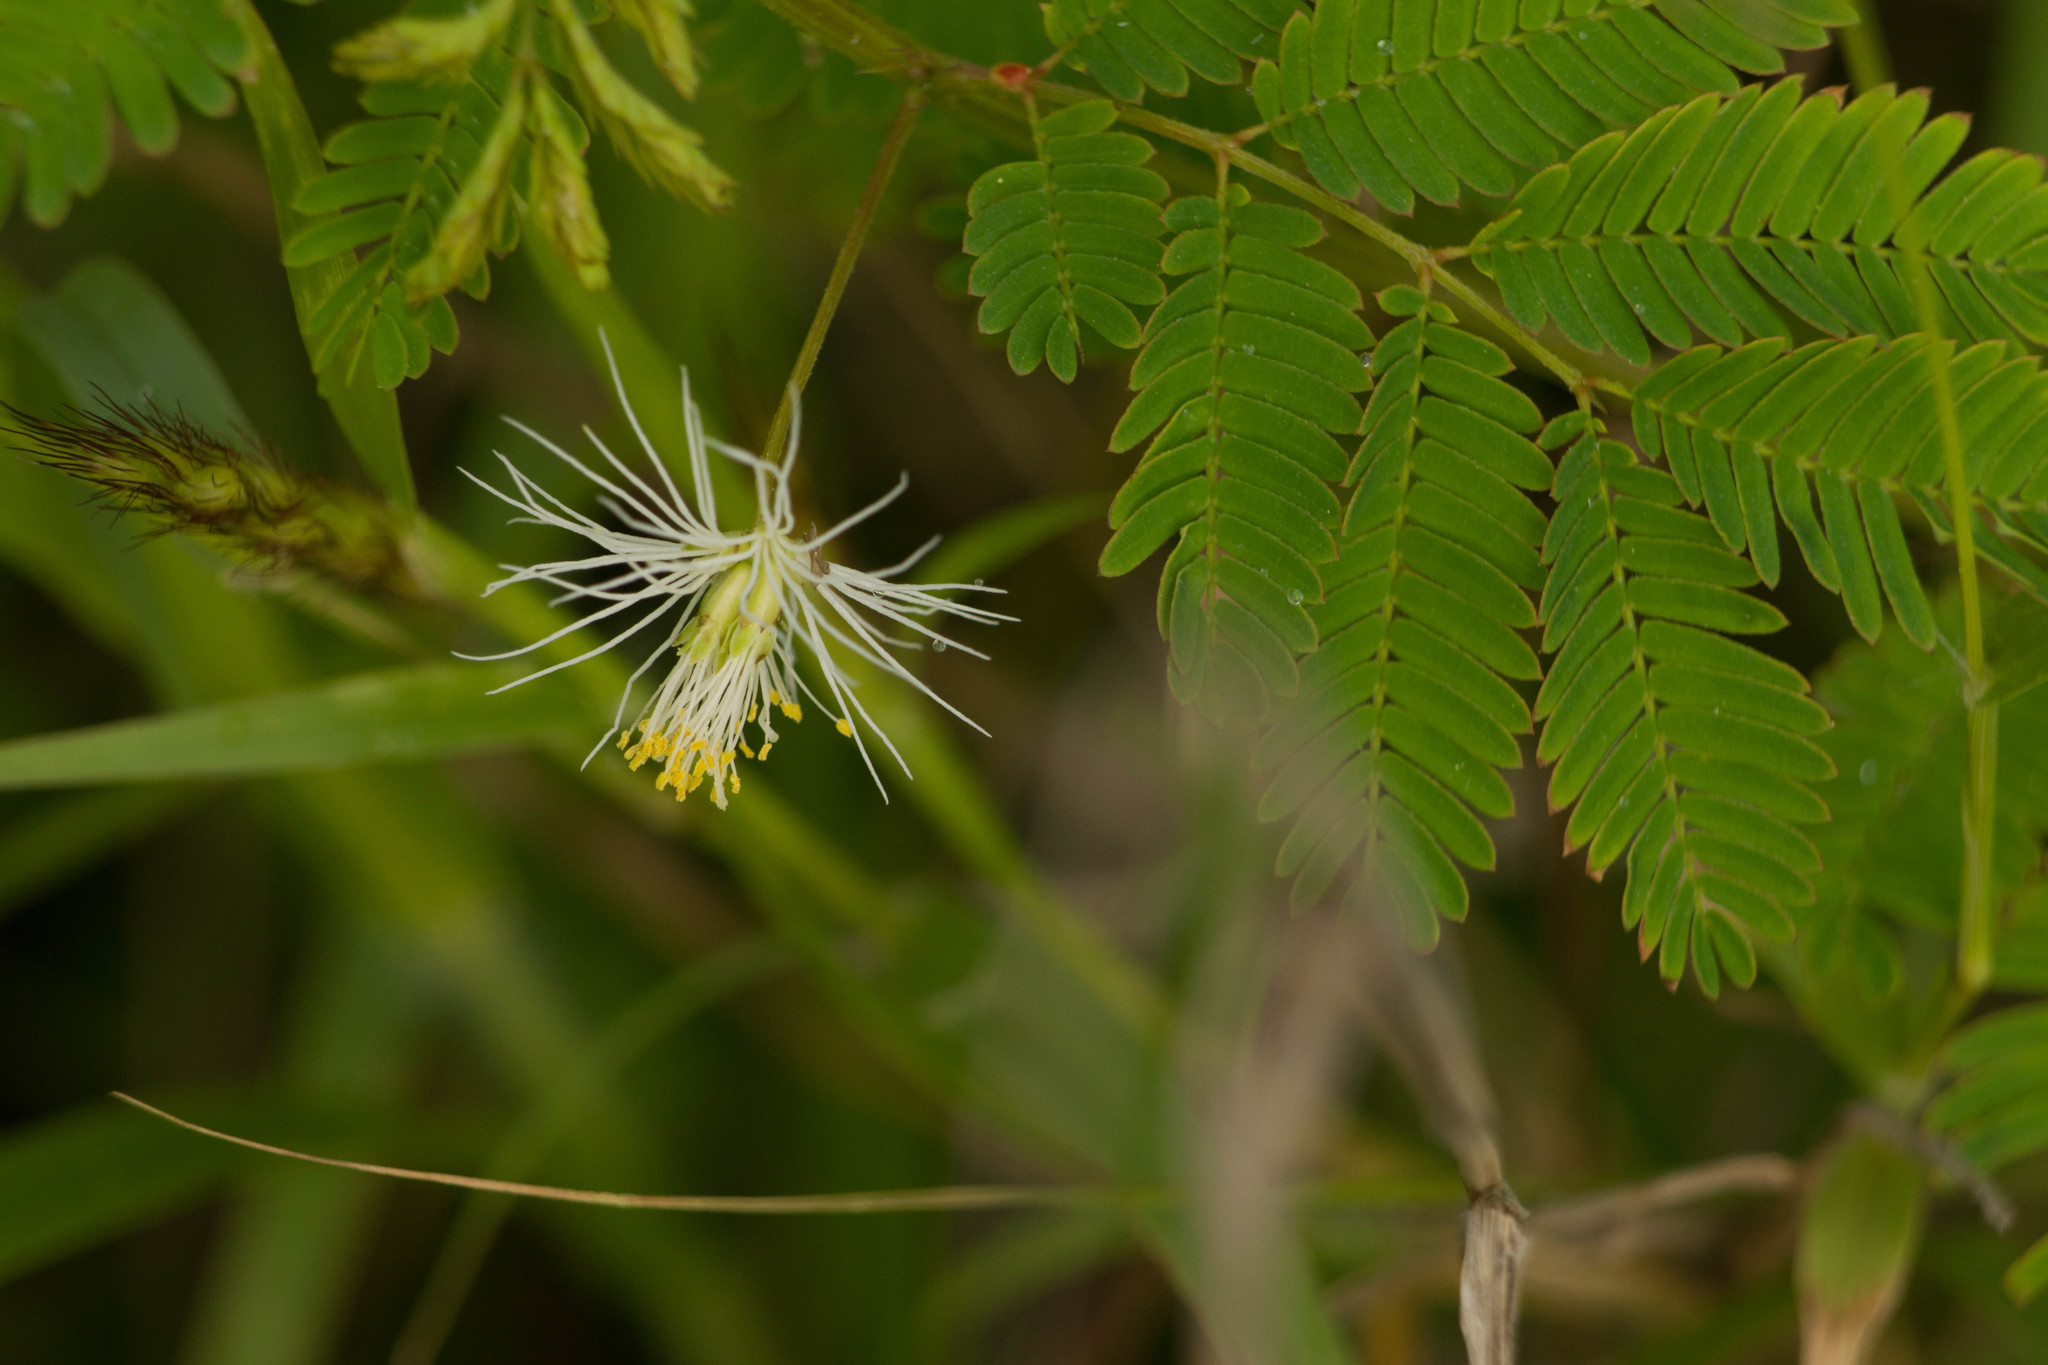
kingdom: Plantae
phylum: Tracheophyta
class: Magnoliopsida
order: Fabales
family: Fabaceae
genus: Desmanthus
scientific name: Desmanthus pernambucanus
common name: Pigeon bundleflower
